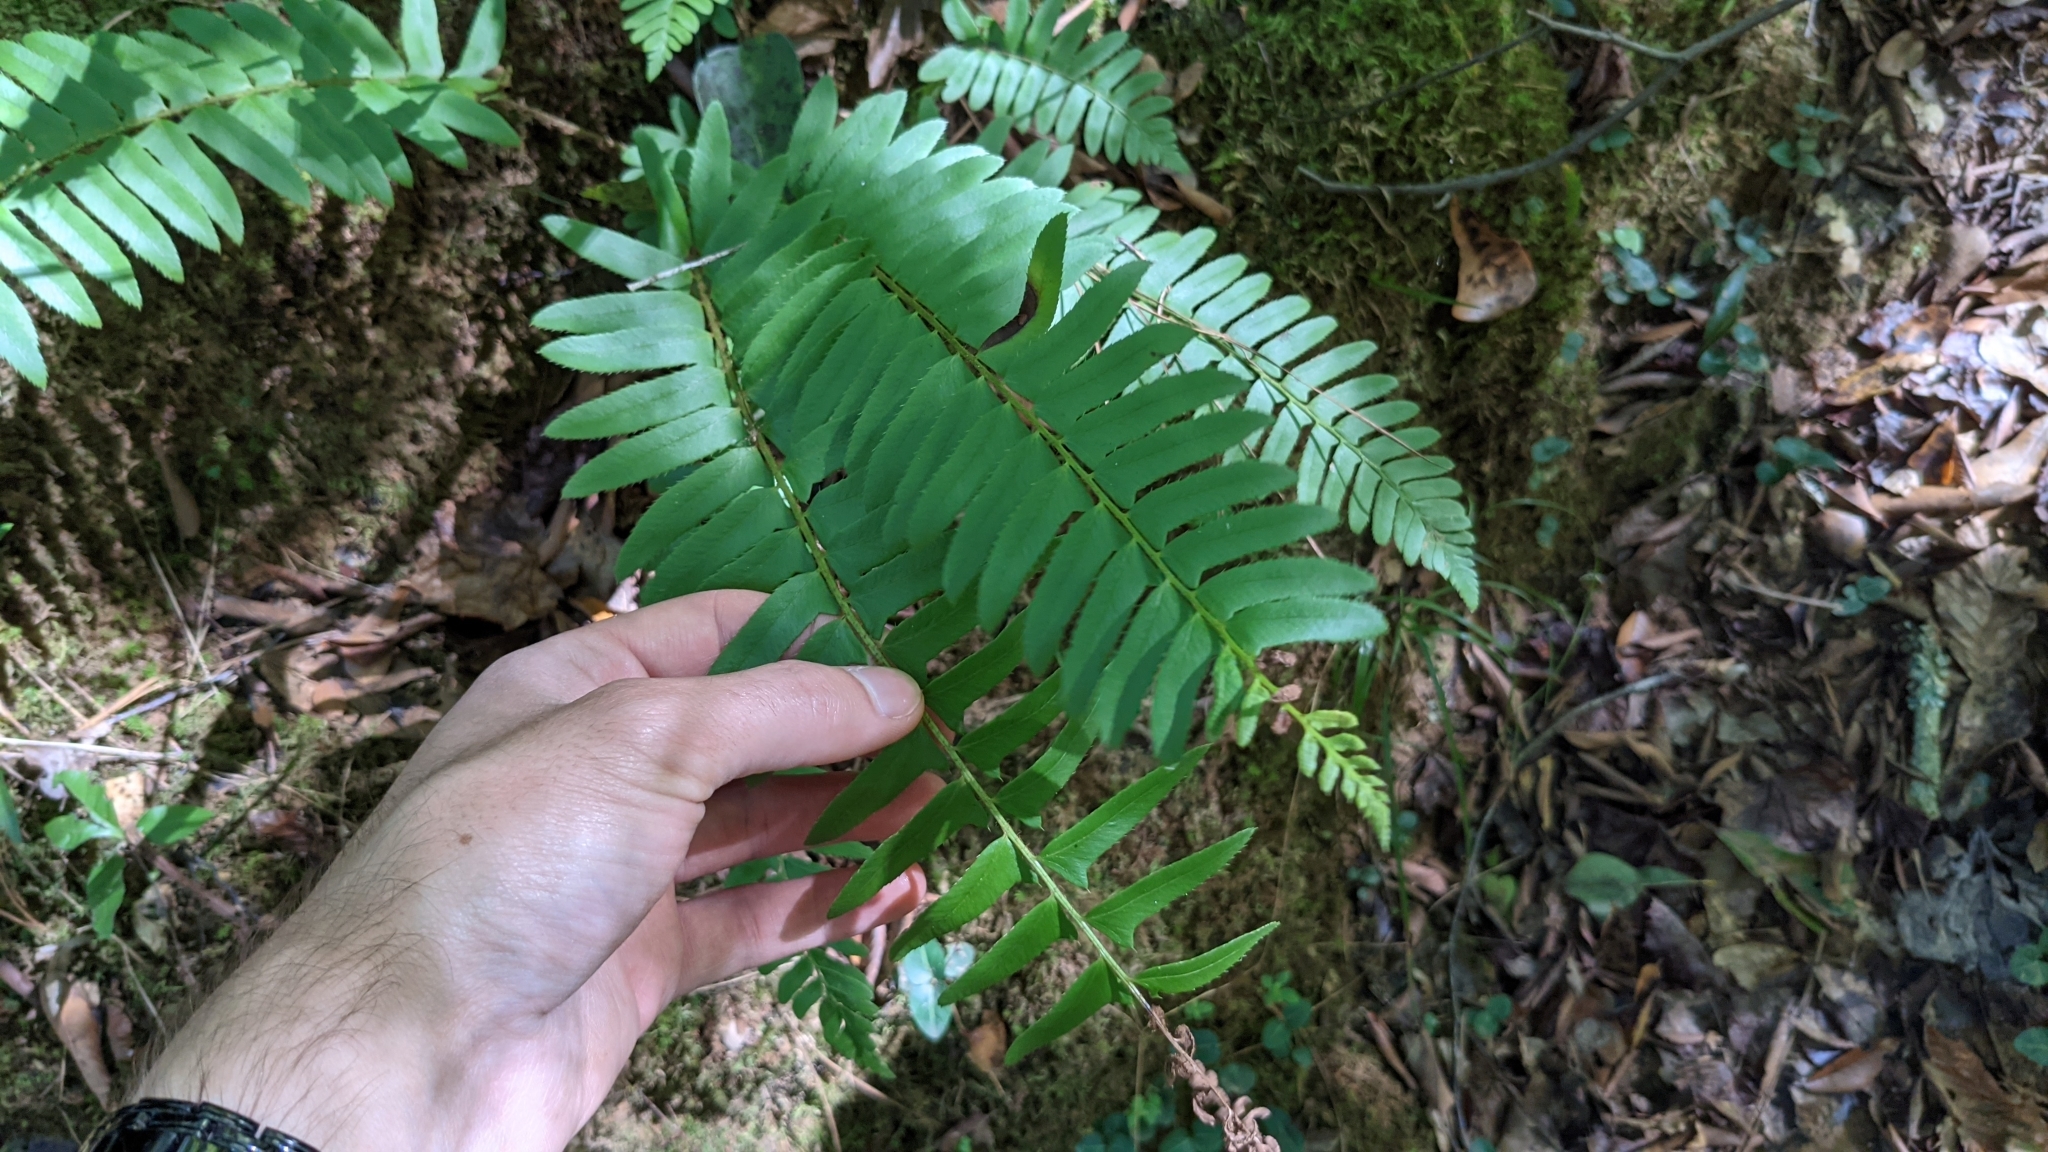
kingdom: Plantae
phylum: Tracheophyta
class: Polypodiopsida
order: Polypodiales
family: Dryopteridaceae
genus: Polystichum
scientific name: Polystichum acrostichoides
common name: Christmas fern
